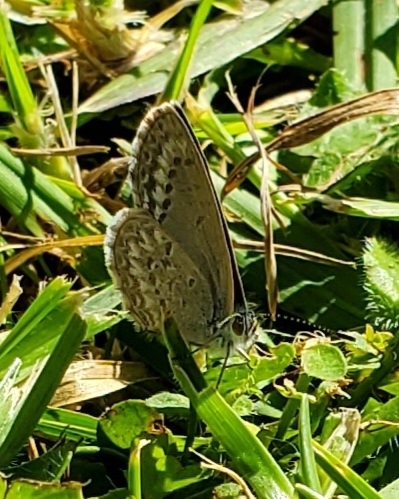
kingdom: Animalia
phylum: Arthropoda
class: Insecta
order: Lepidoptera
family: Lycaenidae
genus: Zizina
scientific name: Zizina otis
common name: Lesser grass blue
